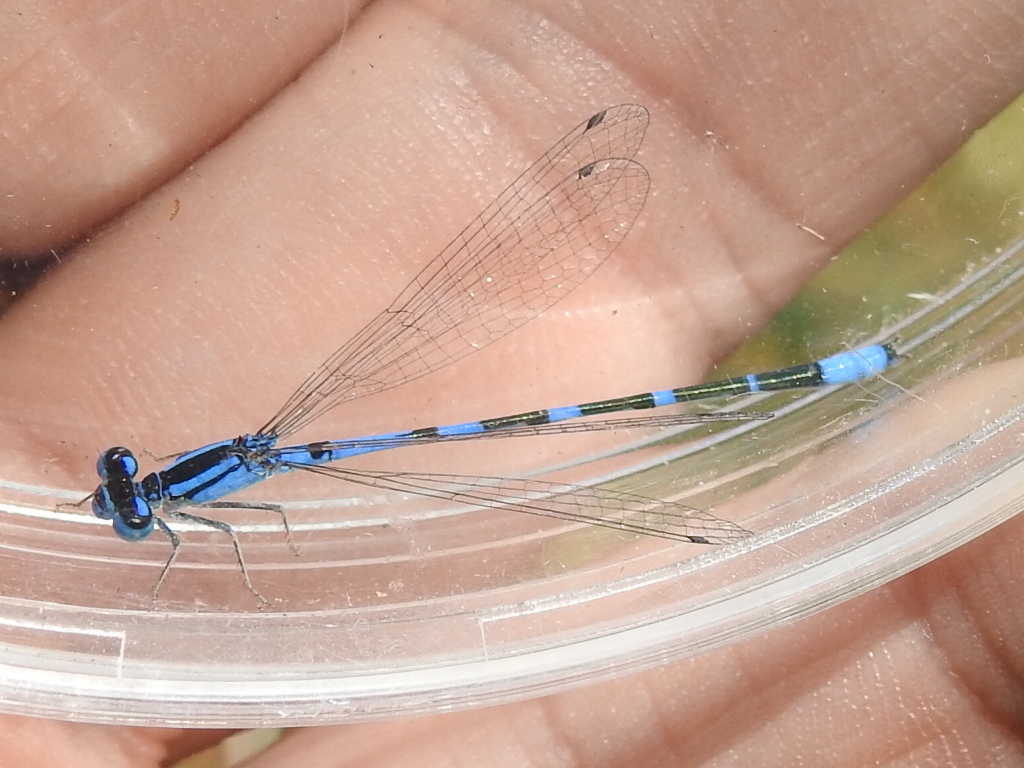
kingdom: Animalia
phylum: Arthropoda
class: Insecta
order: Odonata
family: Coenagrionidae
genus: Enallagma
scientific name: Enallagma praevarum
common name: Arroyo bluet
